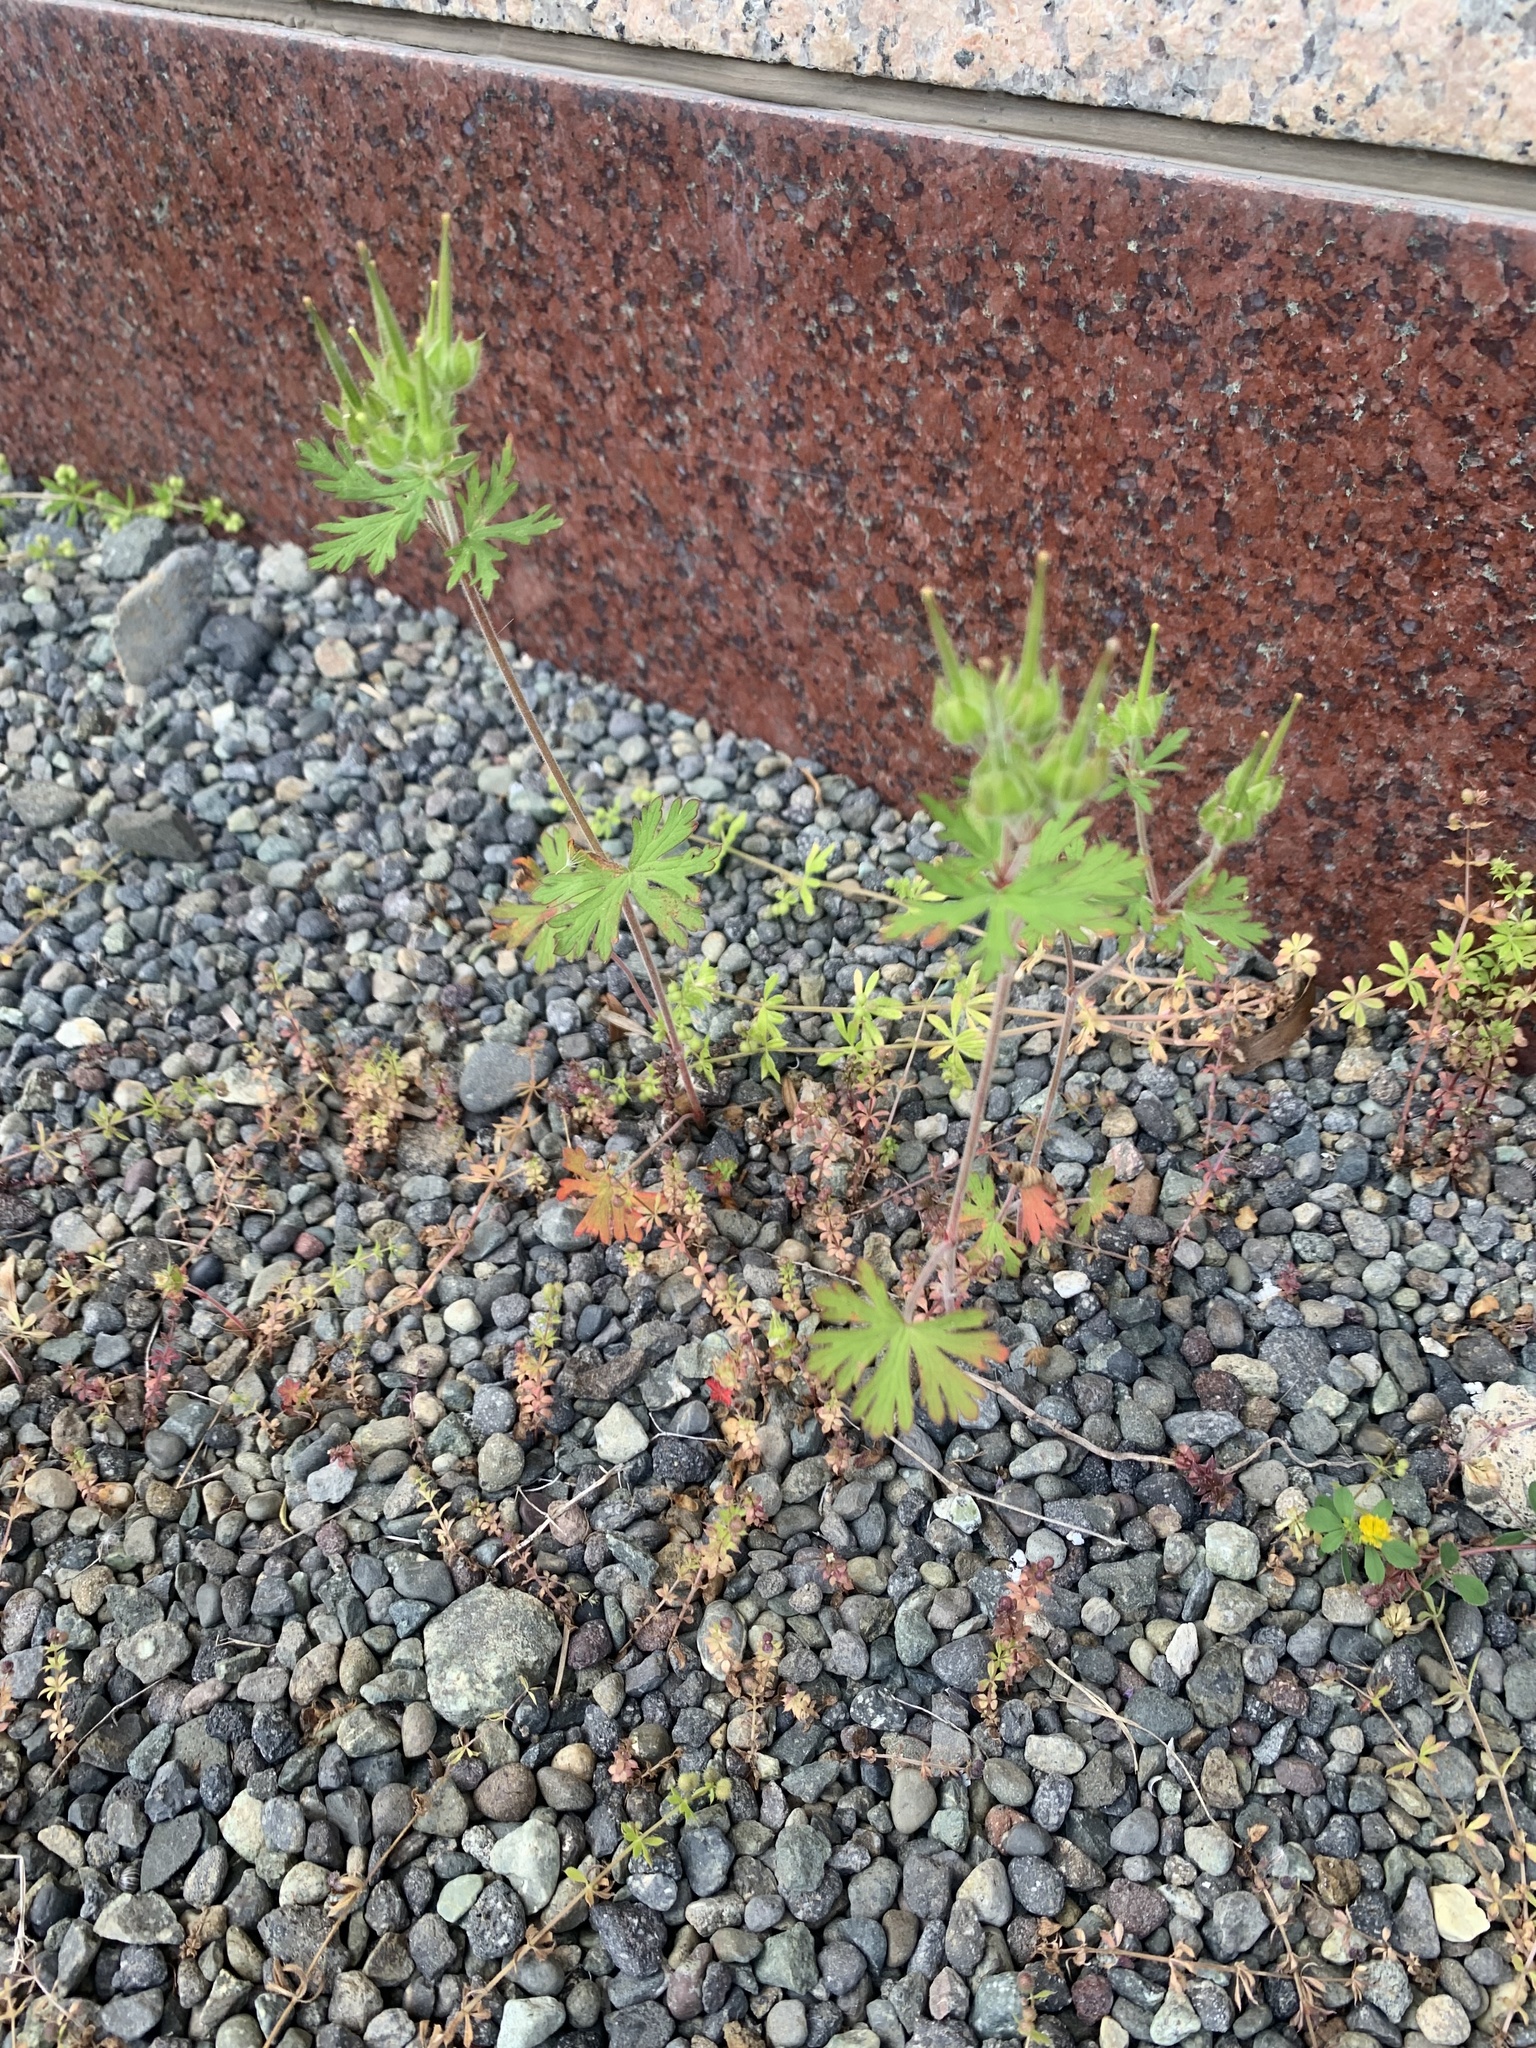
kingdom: Plantae
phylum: Tracheophyta
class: Magnoliopsida
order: Geraniales
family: Geraniaceae
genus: Geranium
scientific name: Geranium carolinianum
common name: Carolina crane's-bill
